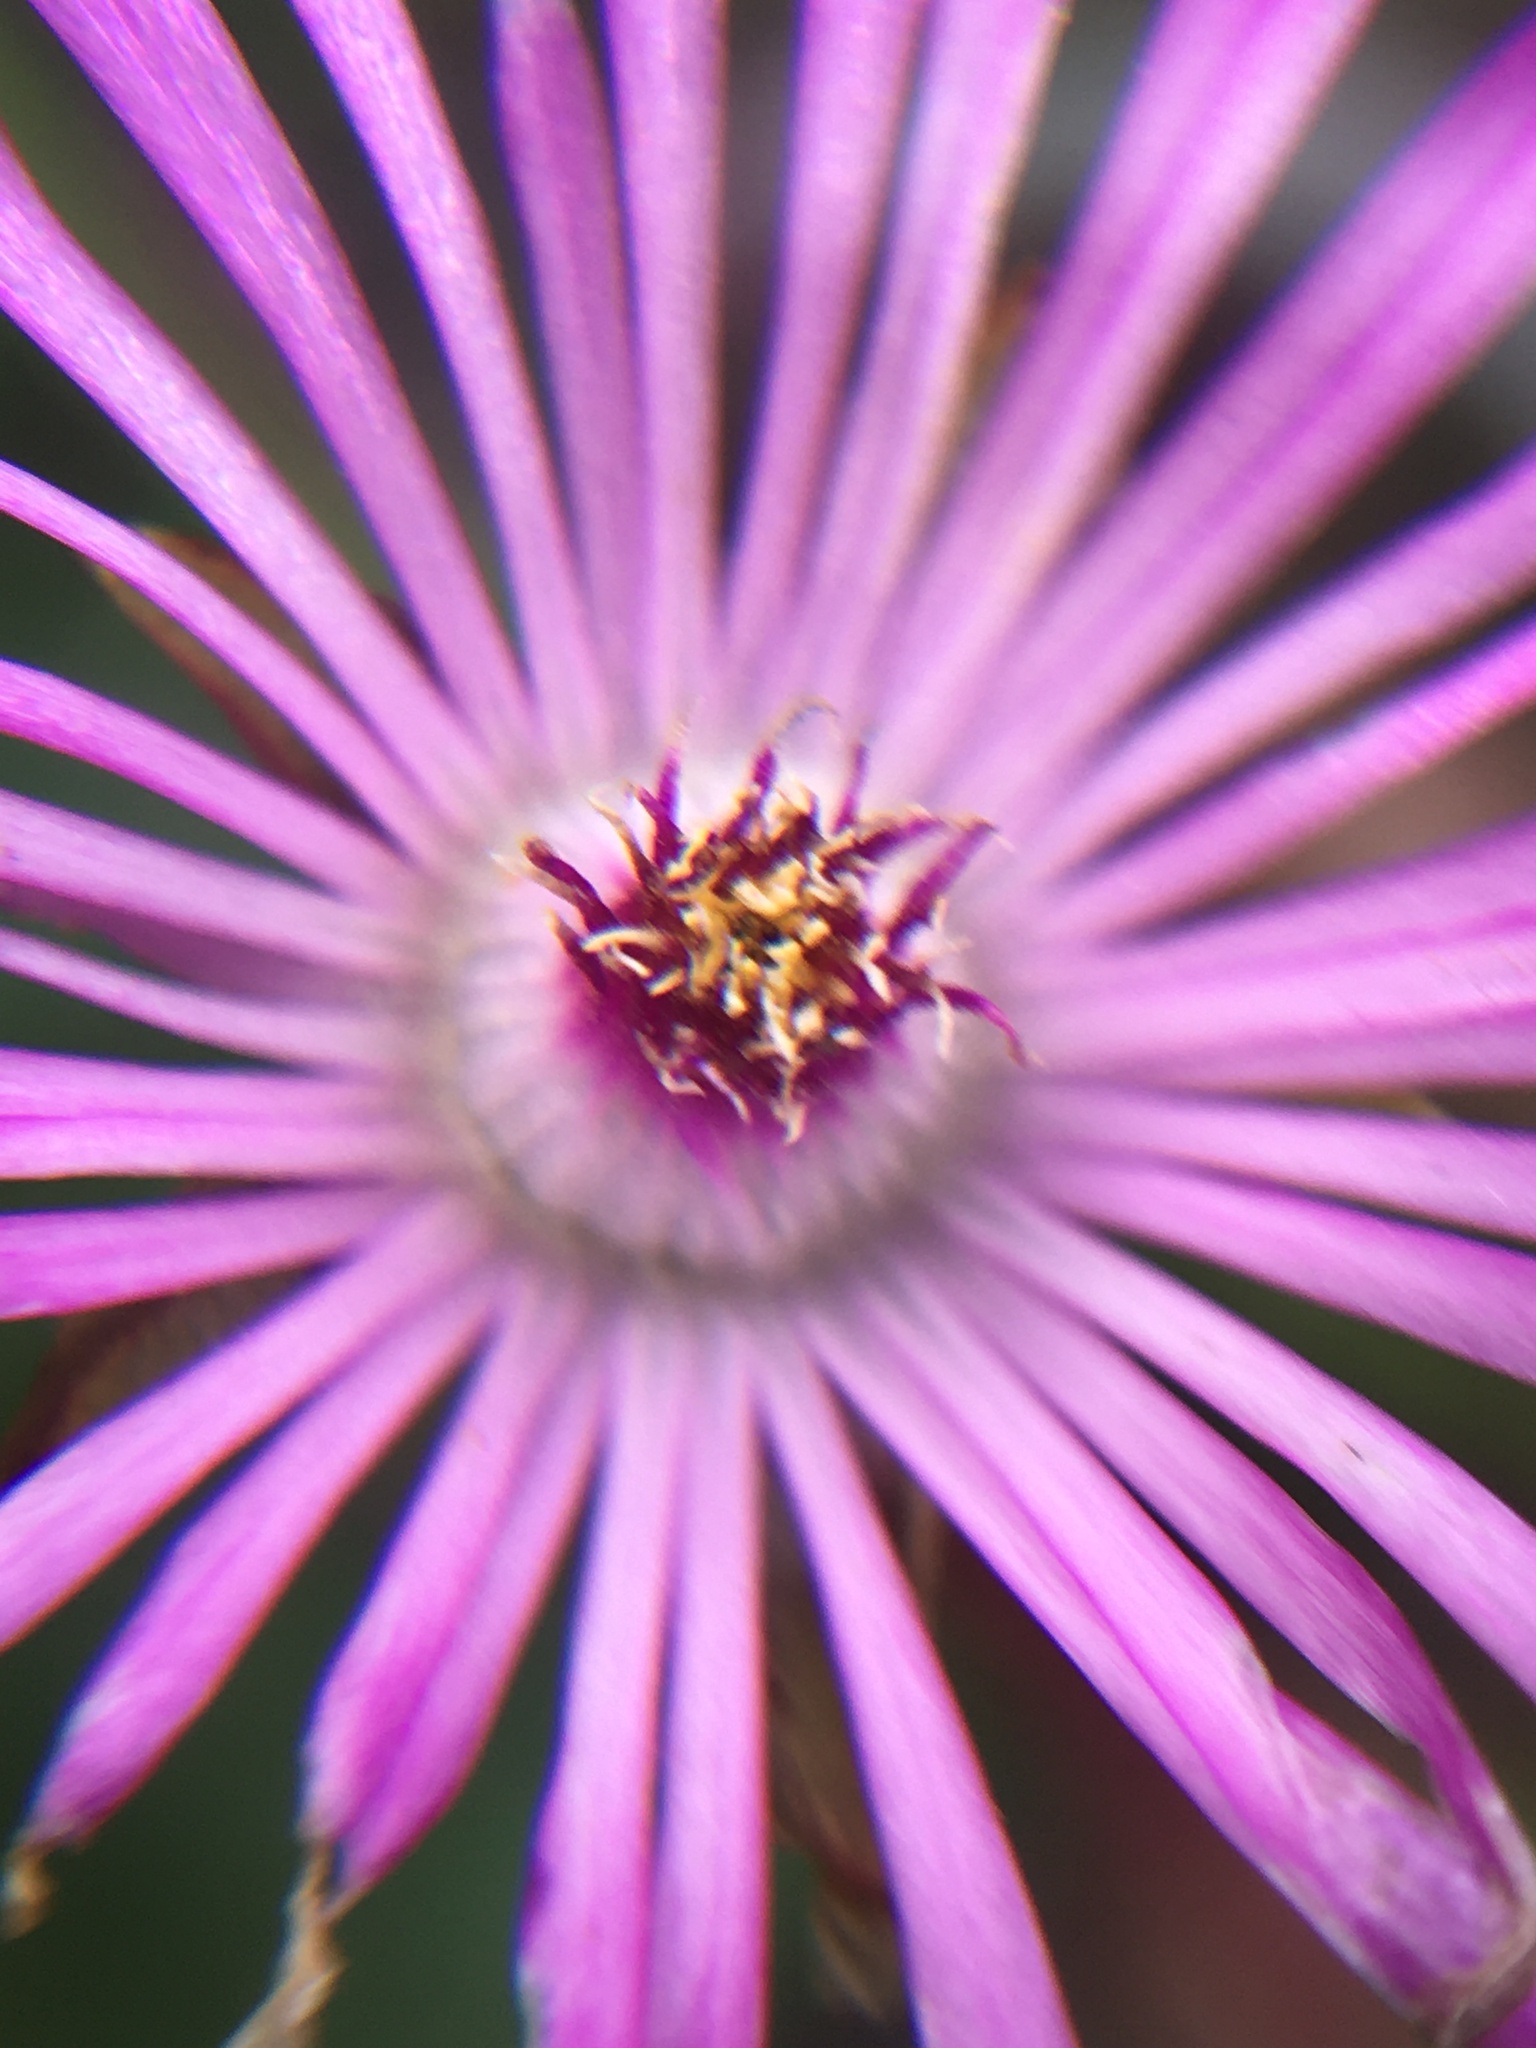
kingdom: Plantae
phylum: Tracheophyta
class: Magnoliopsida
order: Caryophyllales
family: Aizoaceae
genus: Lampranthus
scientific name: Lampranthus filicaulis
